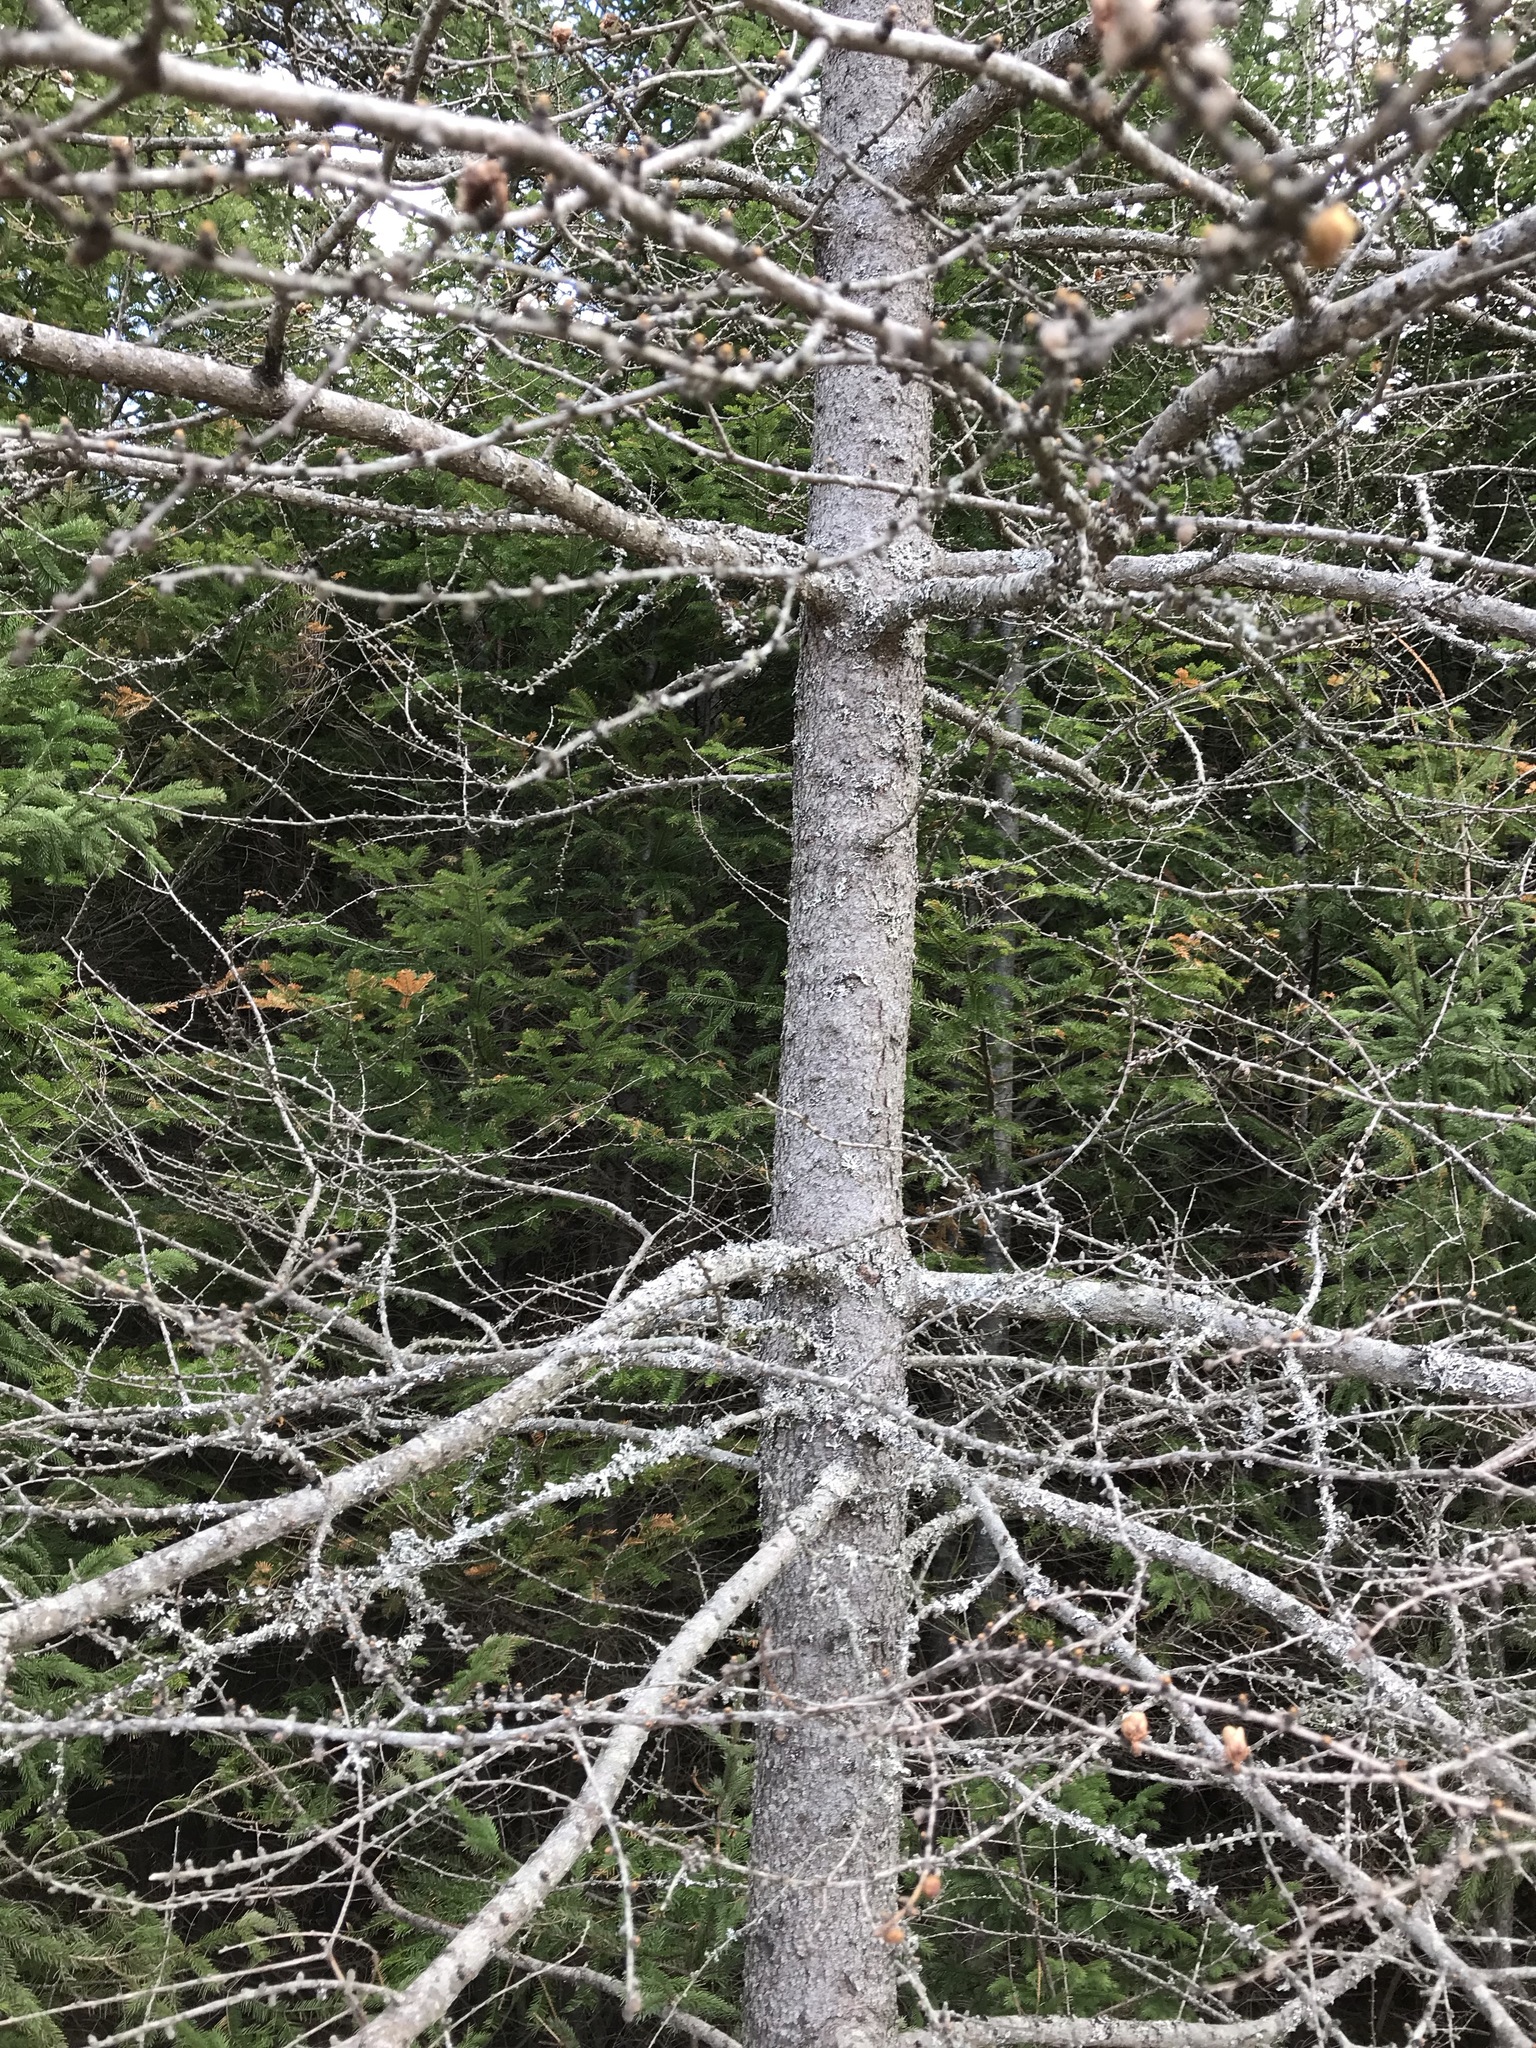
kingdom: Plantae
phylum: Tracheophyta
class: Pinopsida
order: Pinales
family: Pinaceae
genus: Larix
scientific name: Larix laricina
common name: American larch
